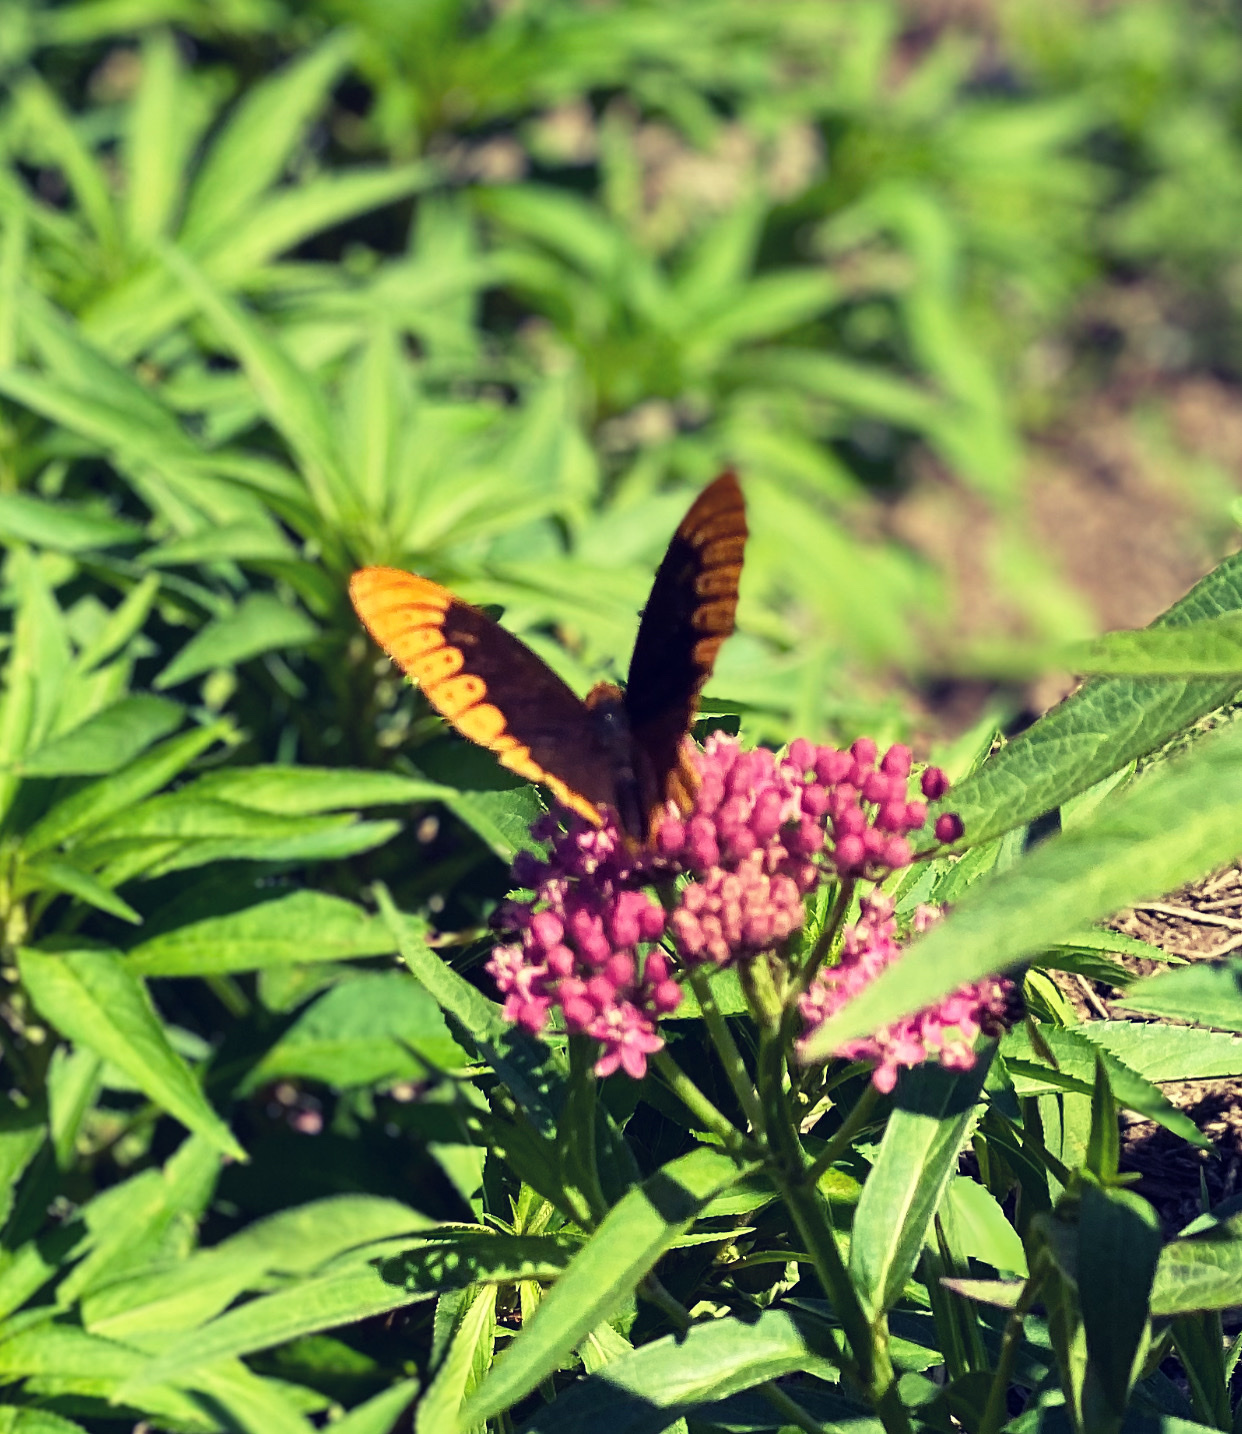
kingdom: Animalia
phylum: Arthropoda
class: Insecta
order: Lepidoptera
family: Nymphalidae
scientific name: Nymphalidae
